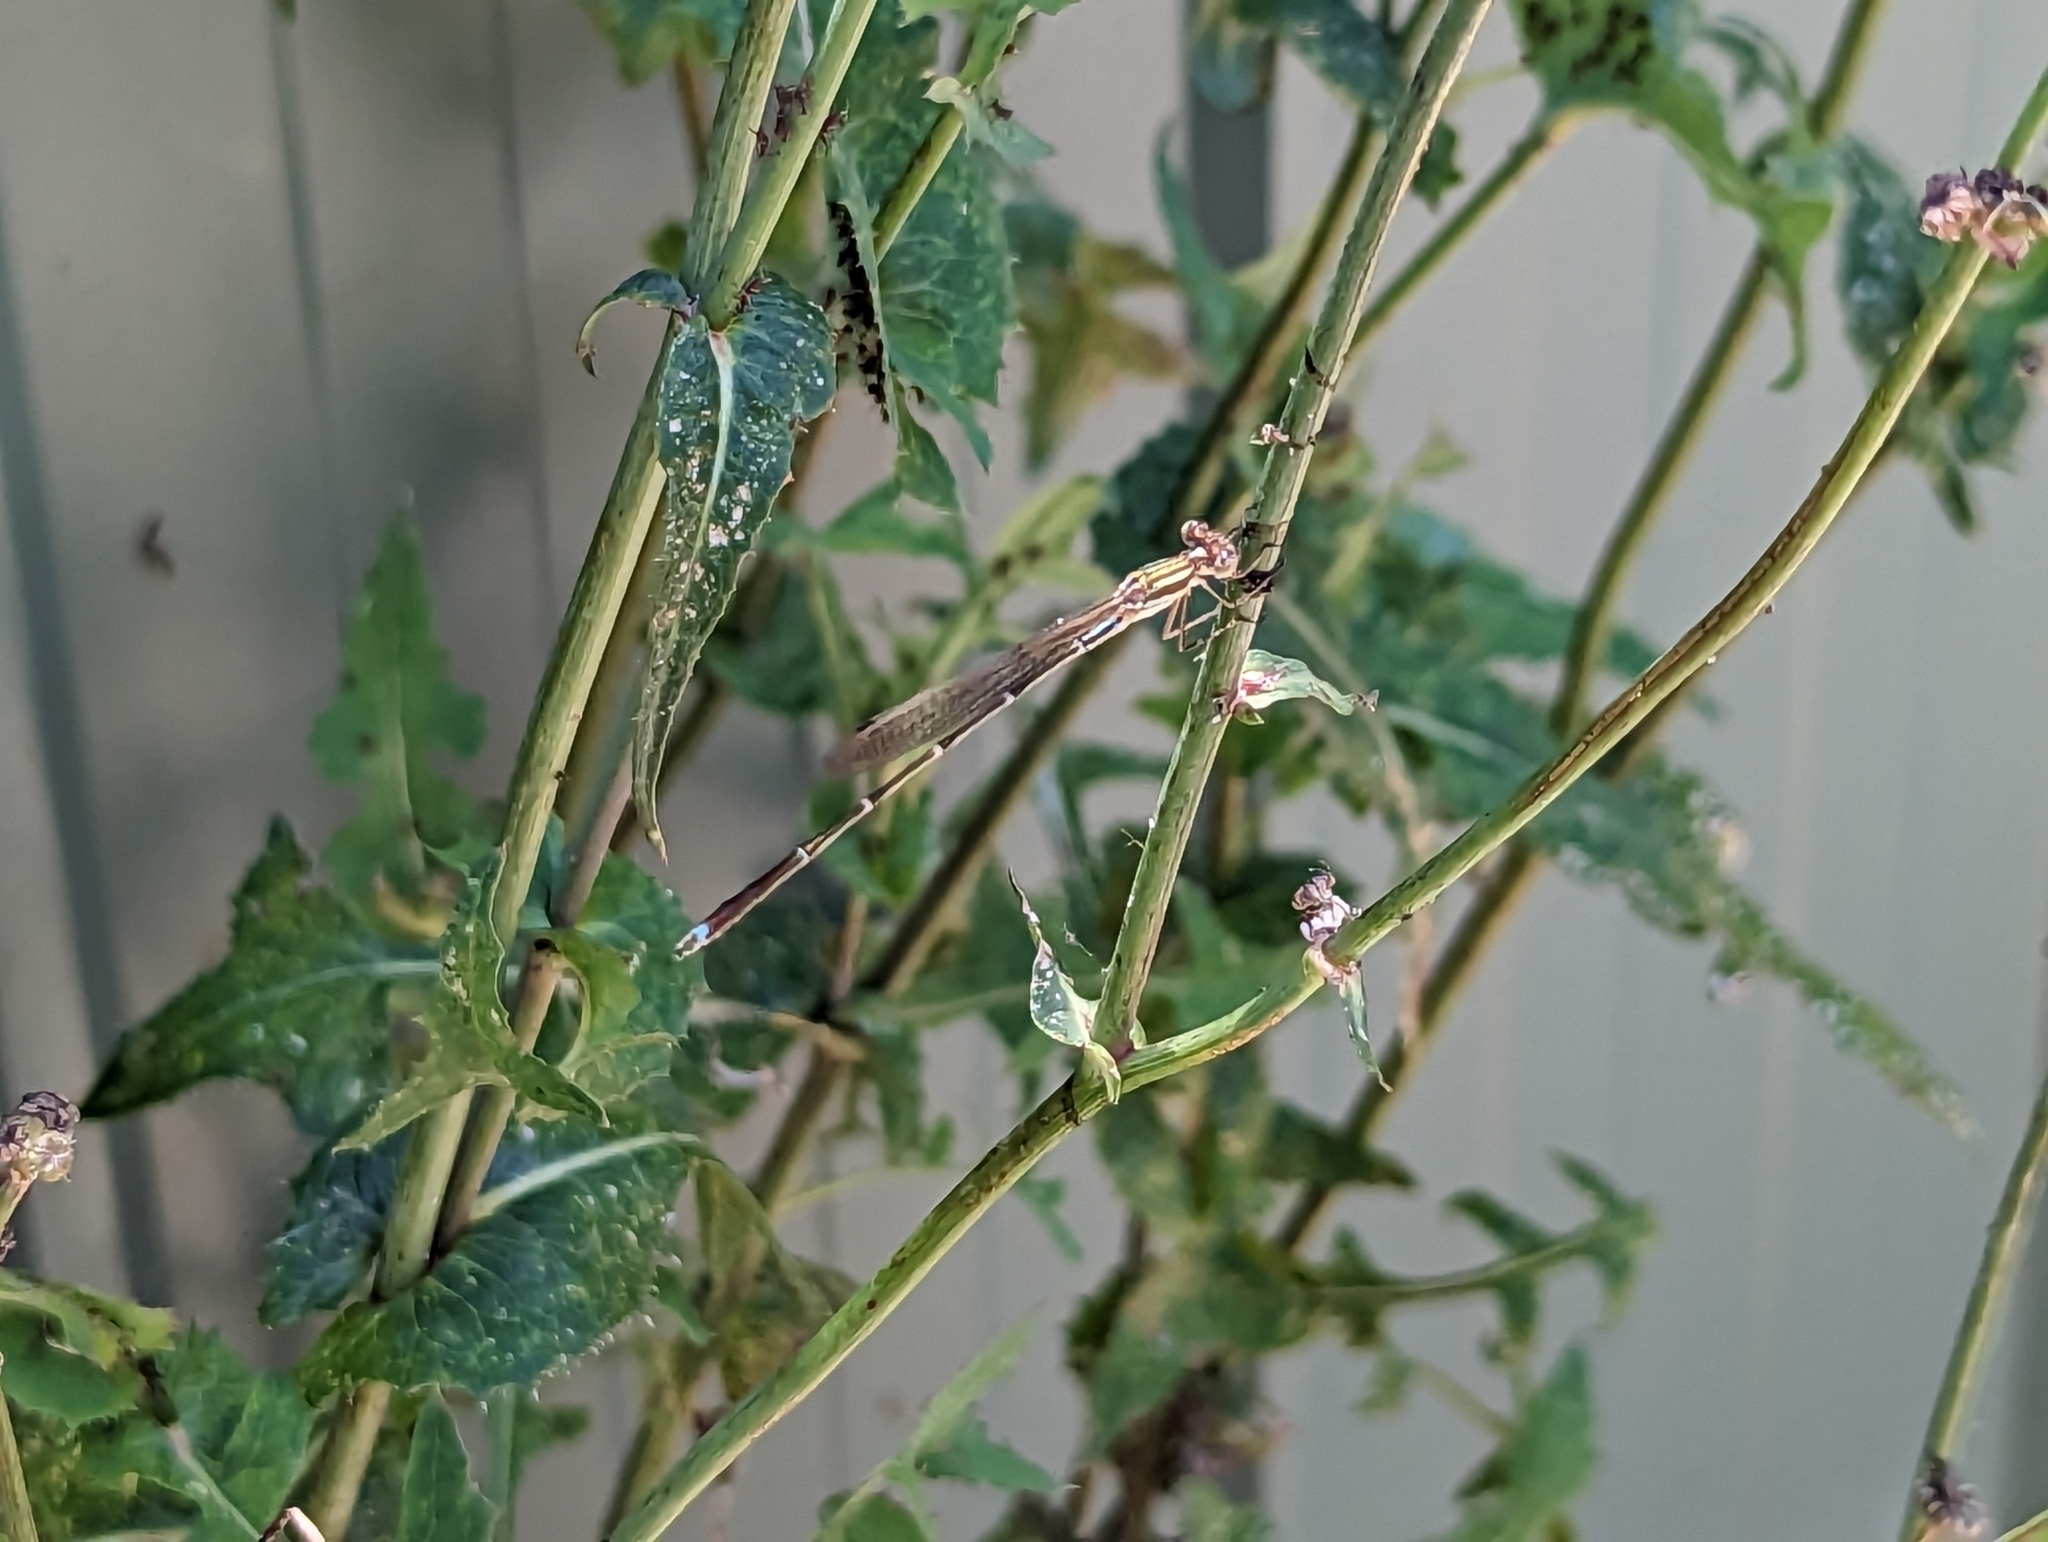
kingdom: Animalia
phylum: Arthropoda
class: Insecta
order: Odonata
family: Lestidae
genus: Austrolestes
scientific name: Austrolestes analis
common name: Slender ringtail
